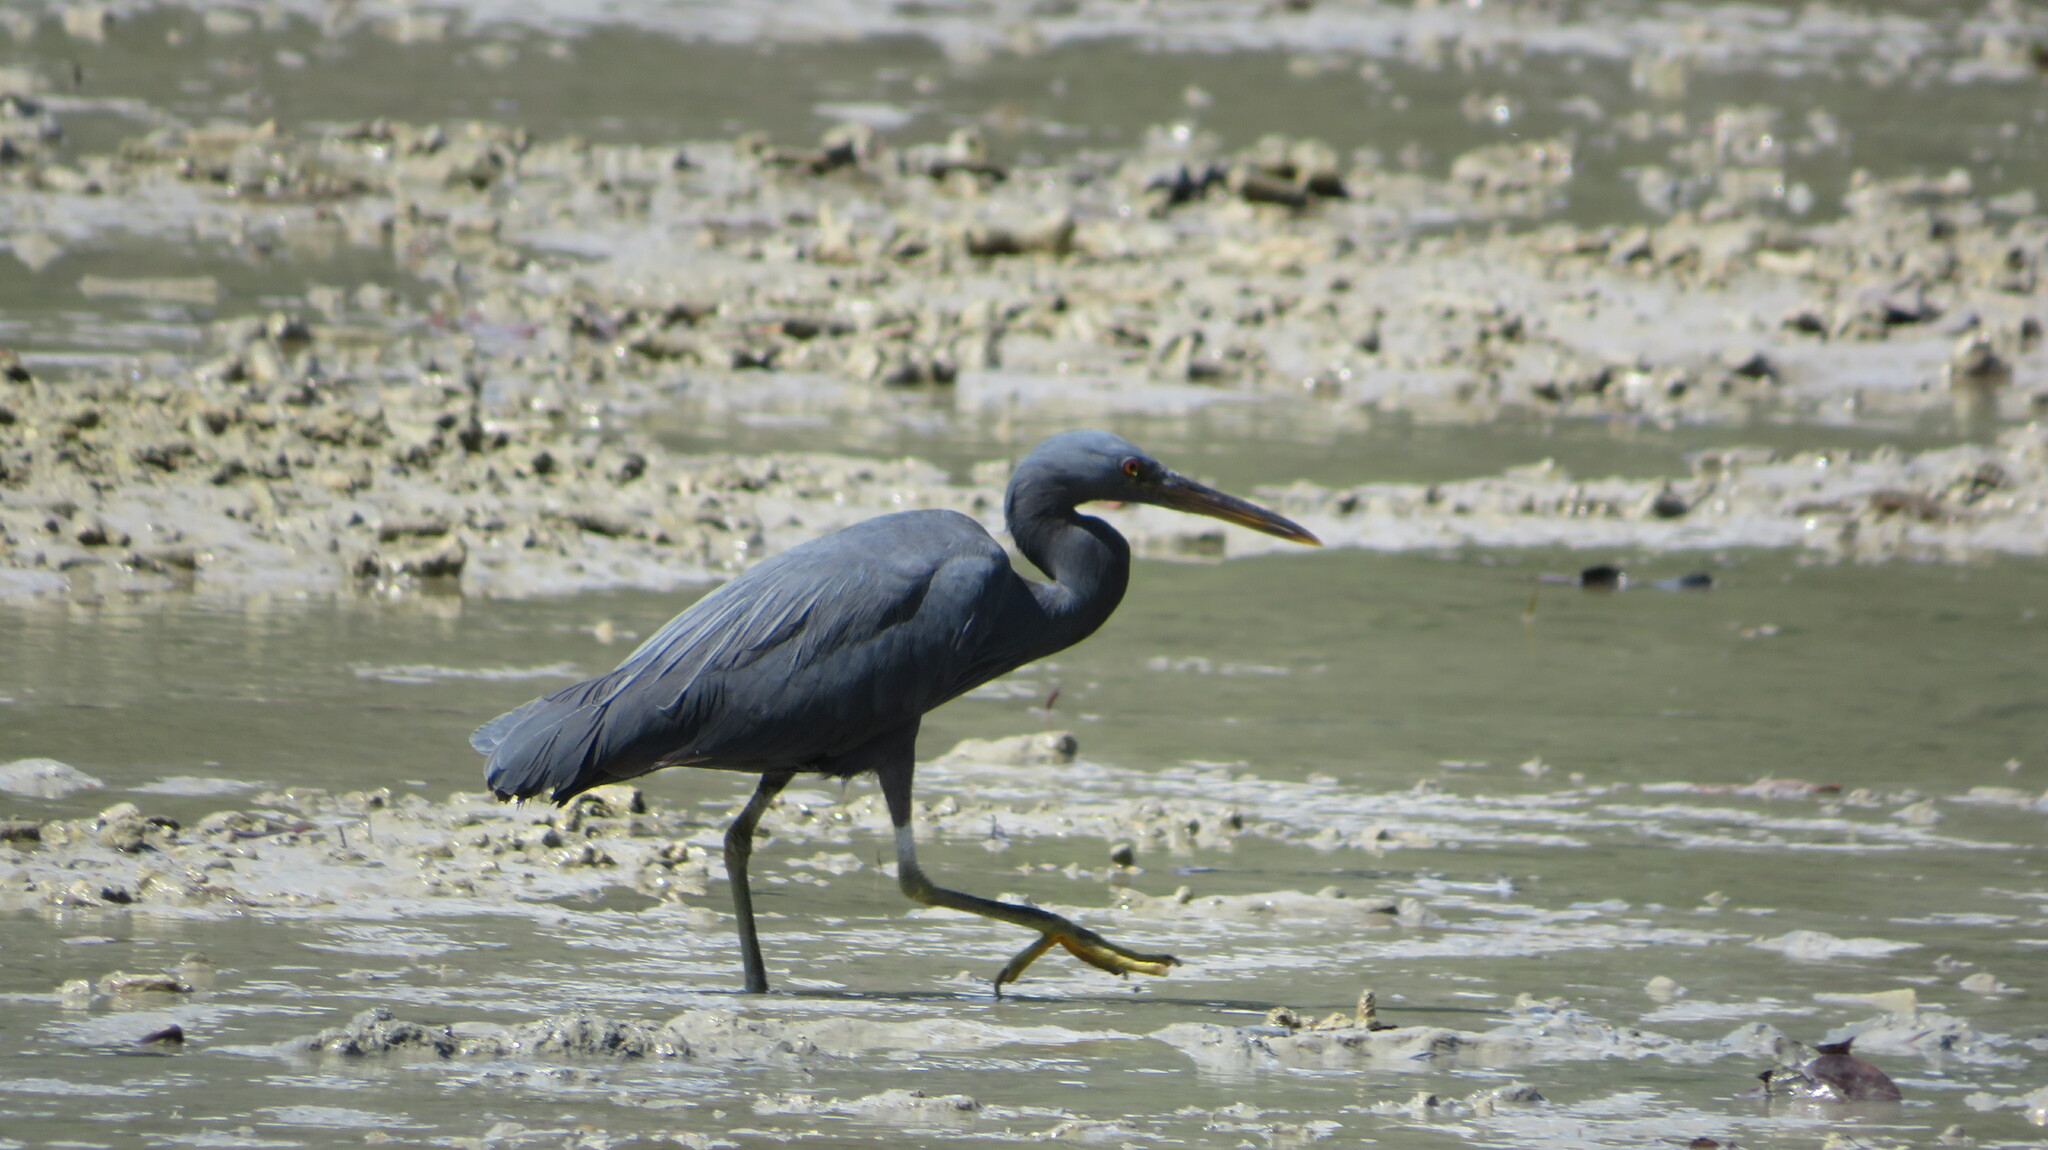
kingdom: Animalia
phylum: Chordata
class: Aves
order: Pelecaniformes
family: Ardeidae
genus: Egretta
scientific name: Egretta sacra
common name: Pacific reef heron
